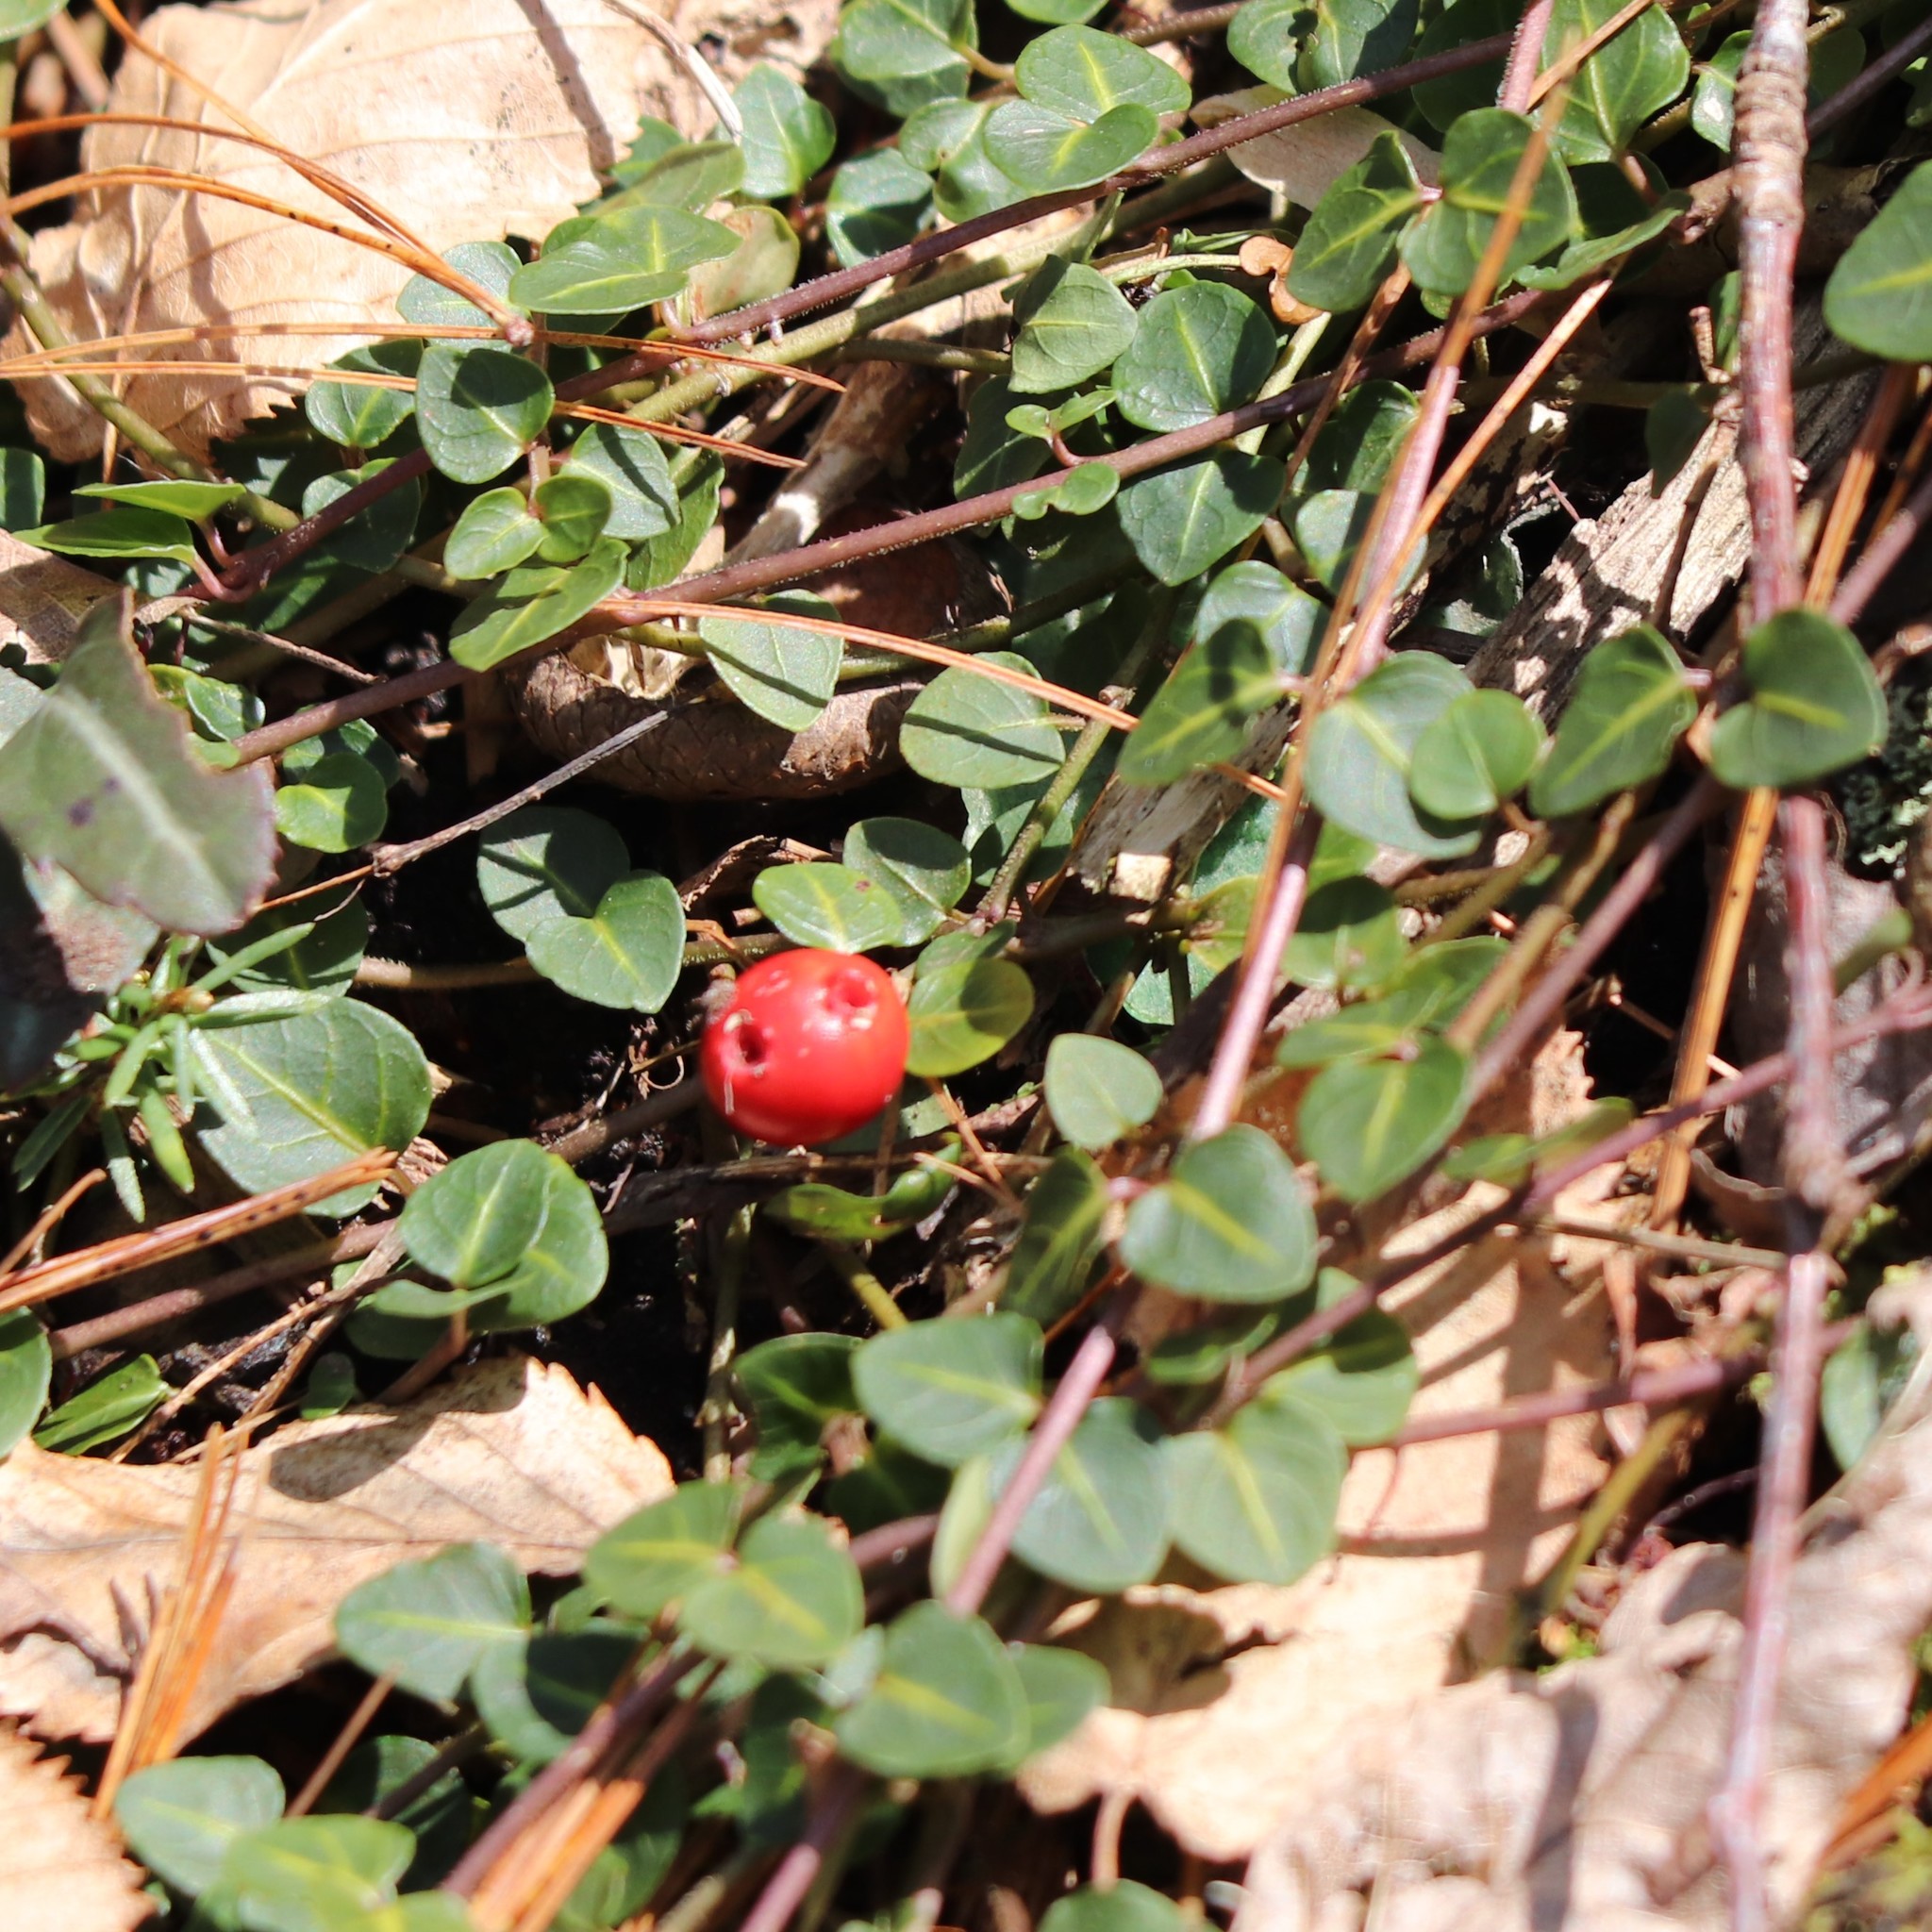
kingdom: Plantae
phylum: Tracheophyta
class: Magnoliopsida
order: Gentianales
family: Rubiaceae
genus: Mitchella
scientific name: Mitchella repens
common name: Partridge-berry
